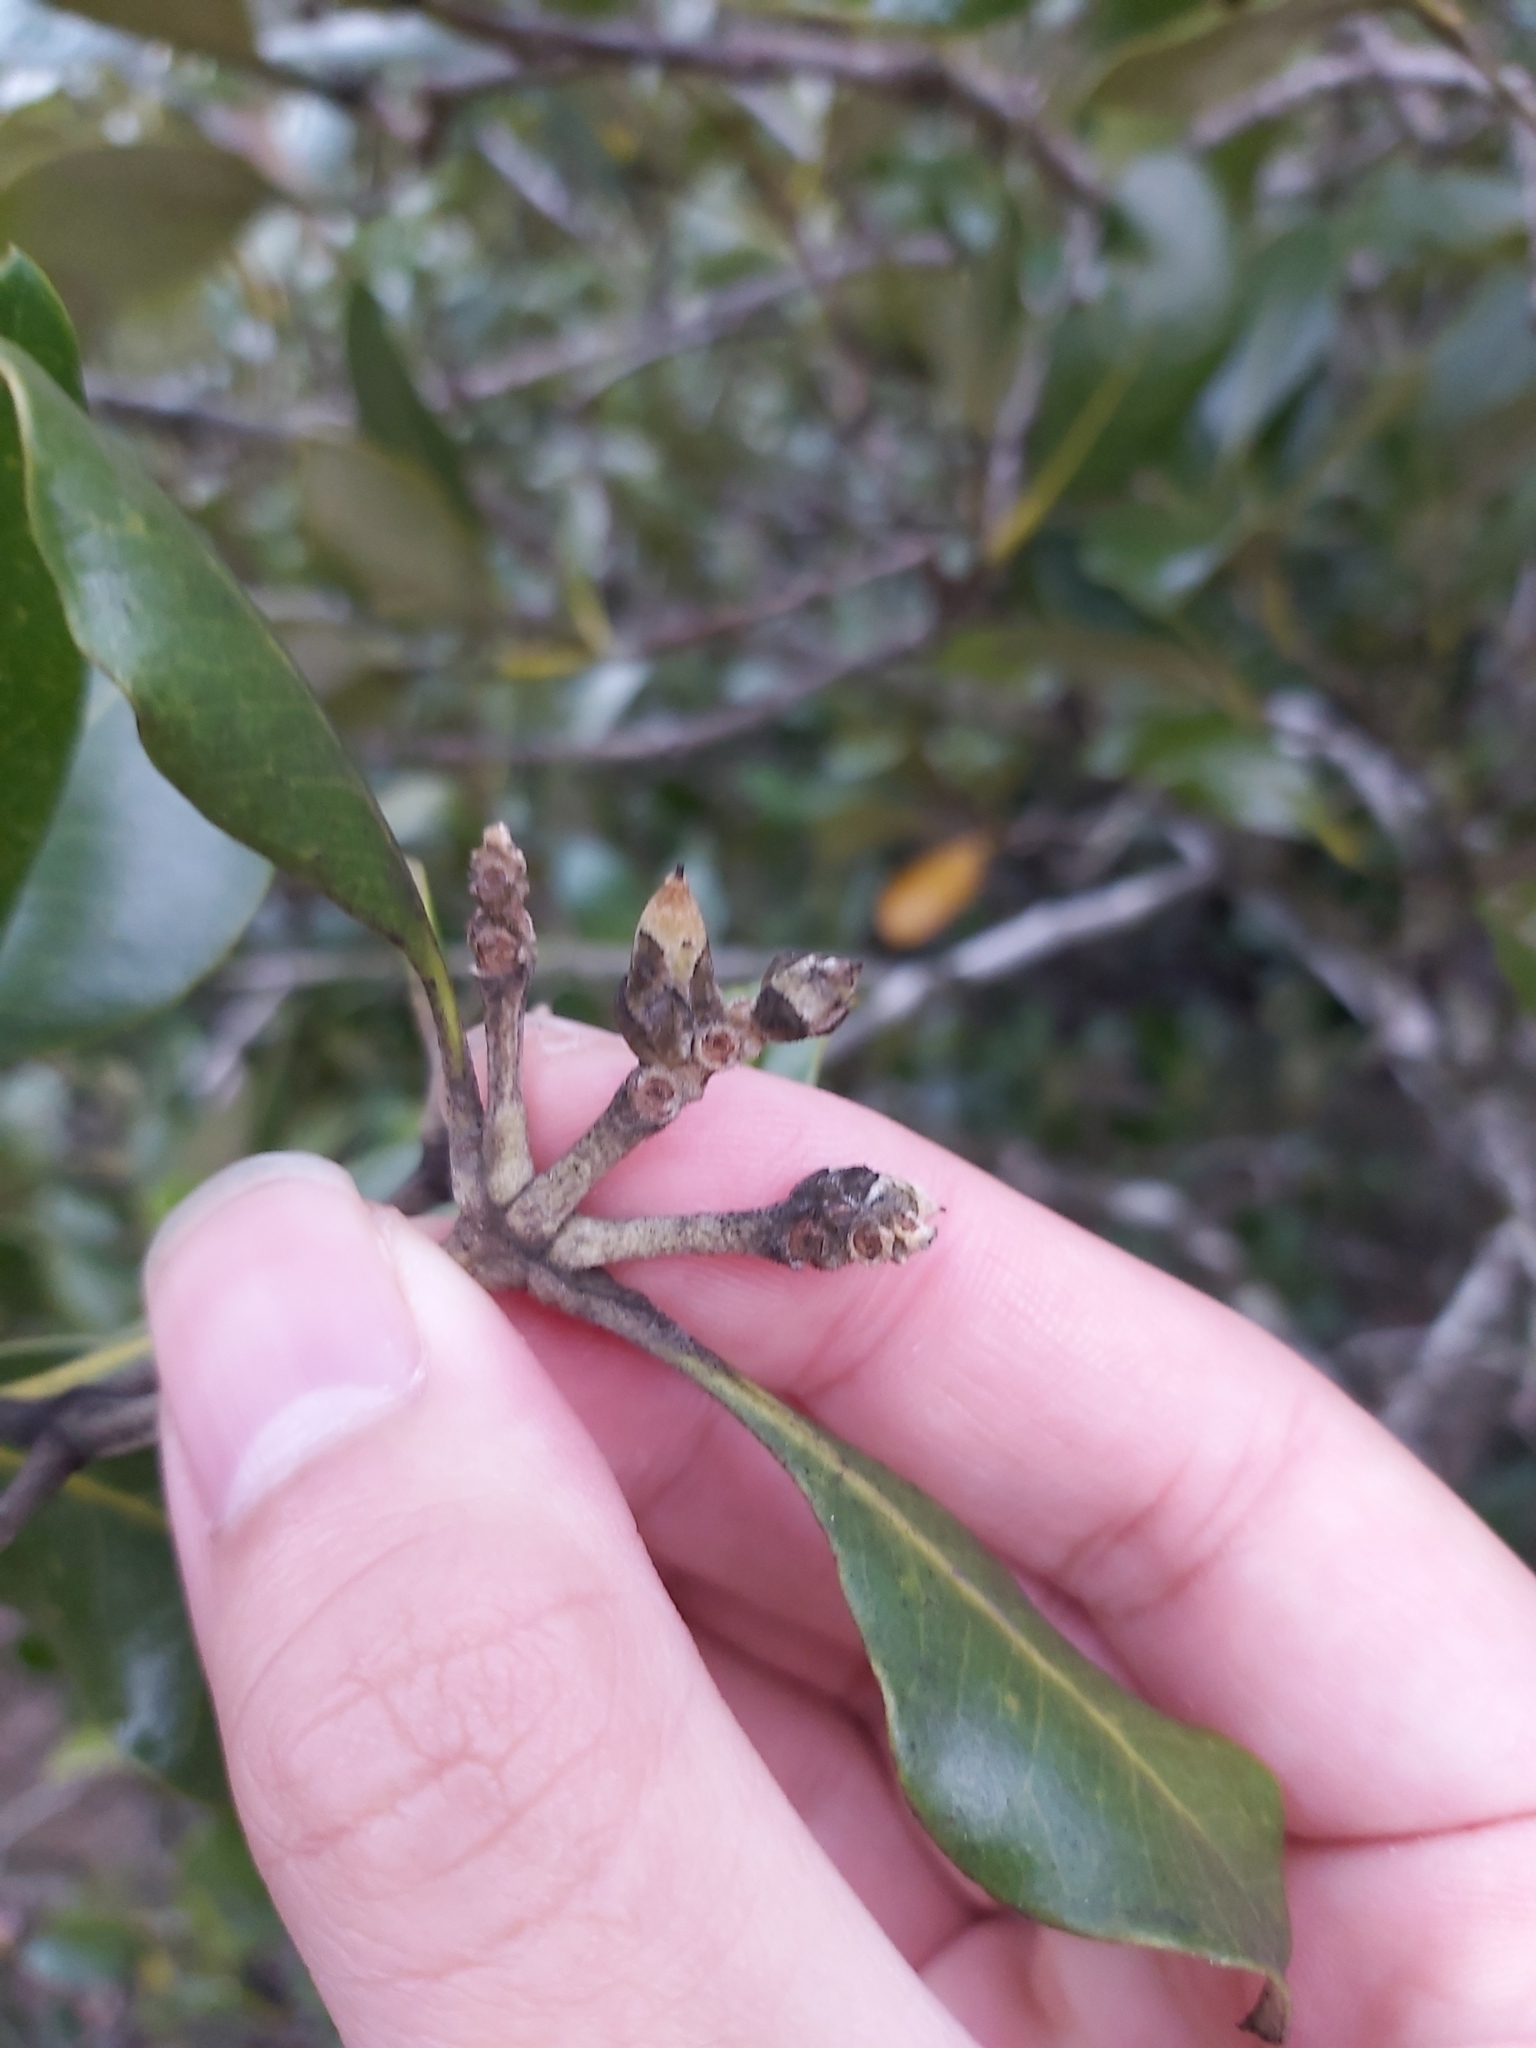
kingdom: Plantae
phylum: Tracheophyta
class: Magnoliopsida
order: Lamiales
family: Acanthaceae
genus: Avicennia
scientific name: Avicennia marina
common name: Gray mangrove
